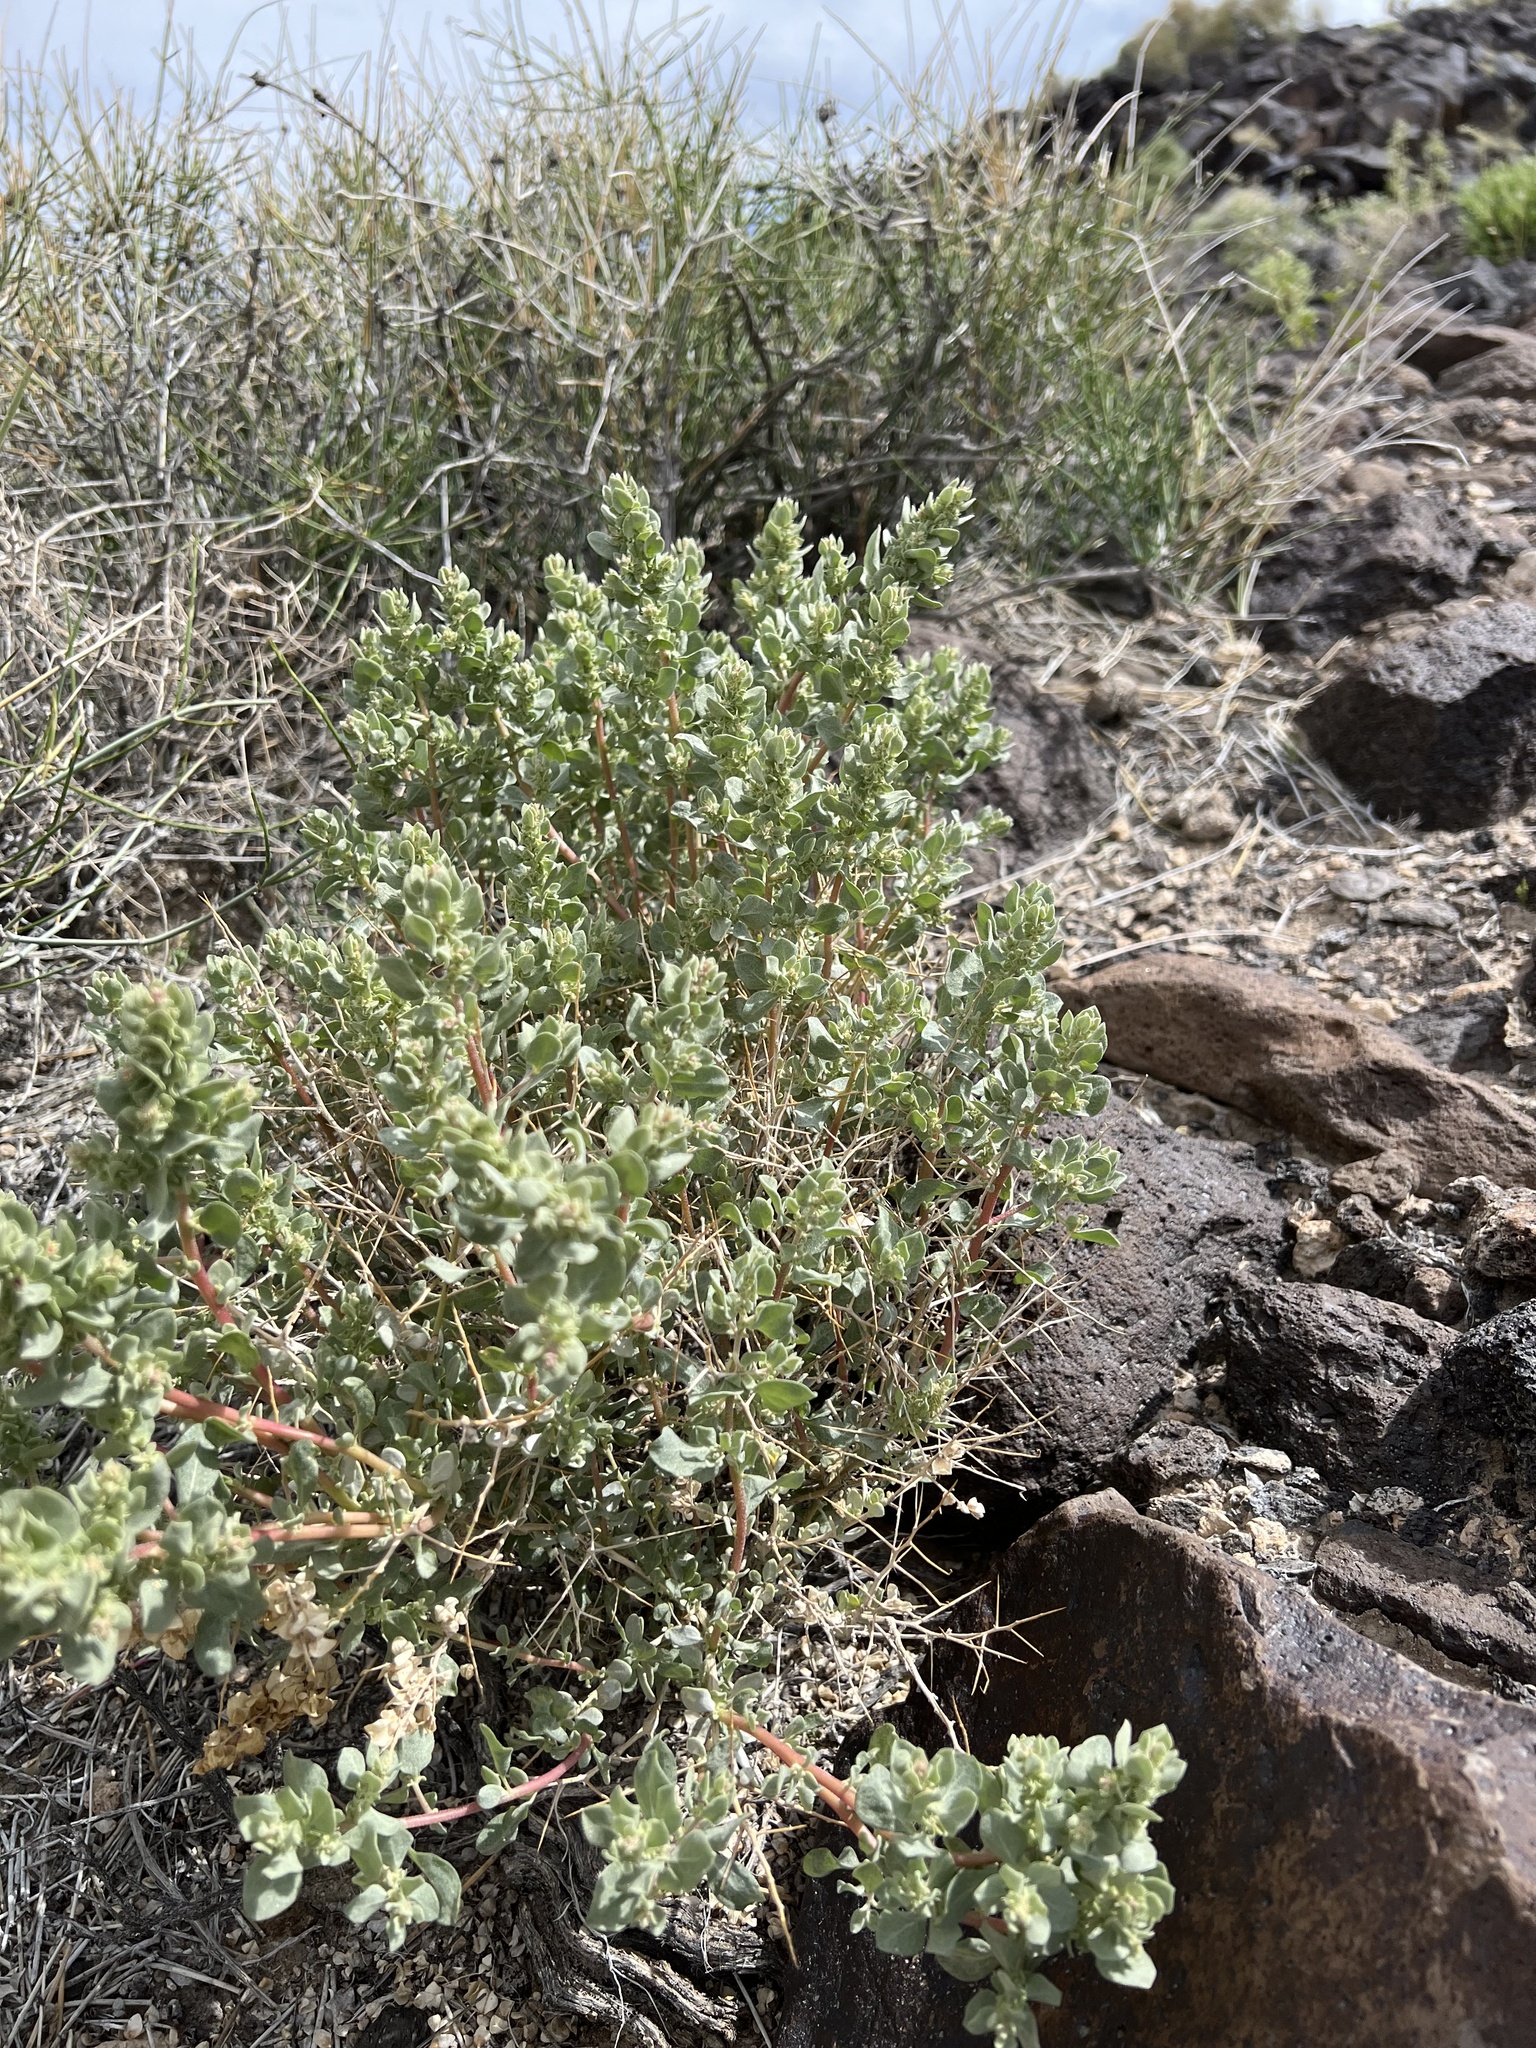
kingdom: Plantae
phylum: Tracheophyta
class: Magnoliopsida
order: Caryophyllales
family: Amaranthaceae
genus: Atriplex
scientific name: Atriplex confertifolia
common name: Shadscale
